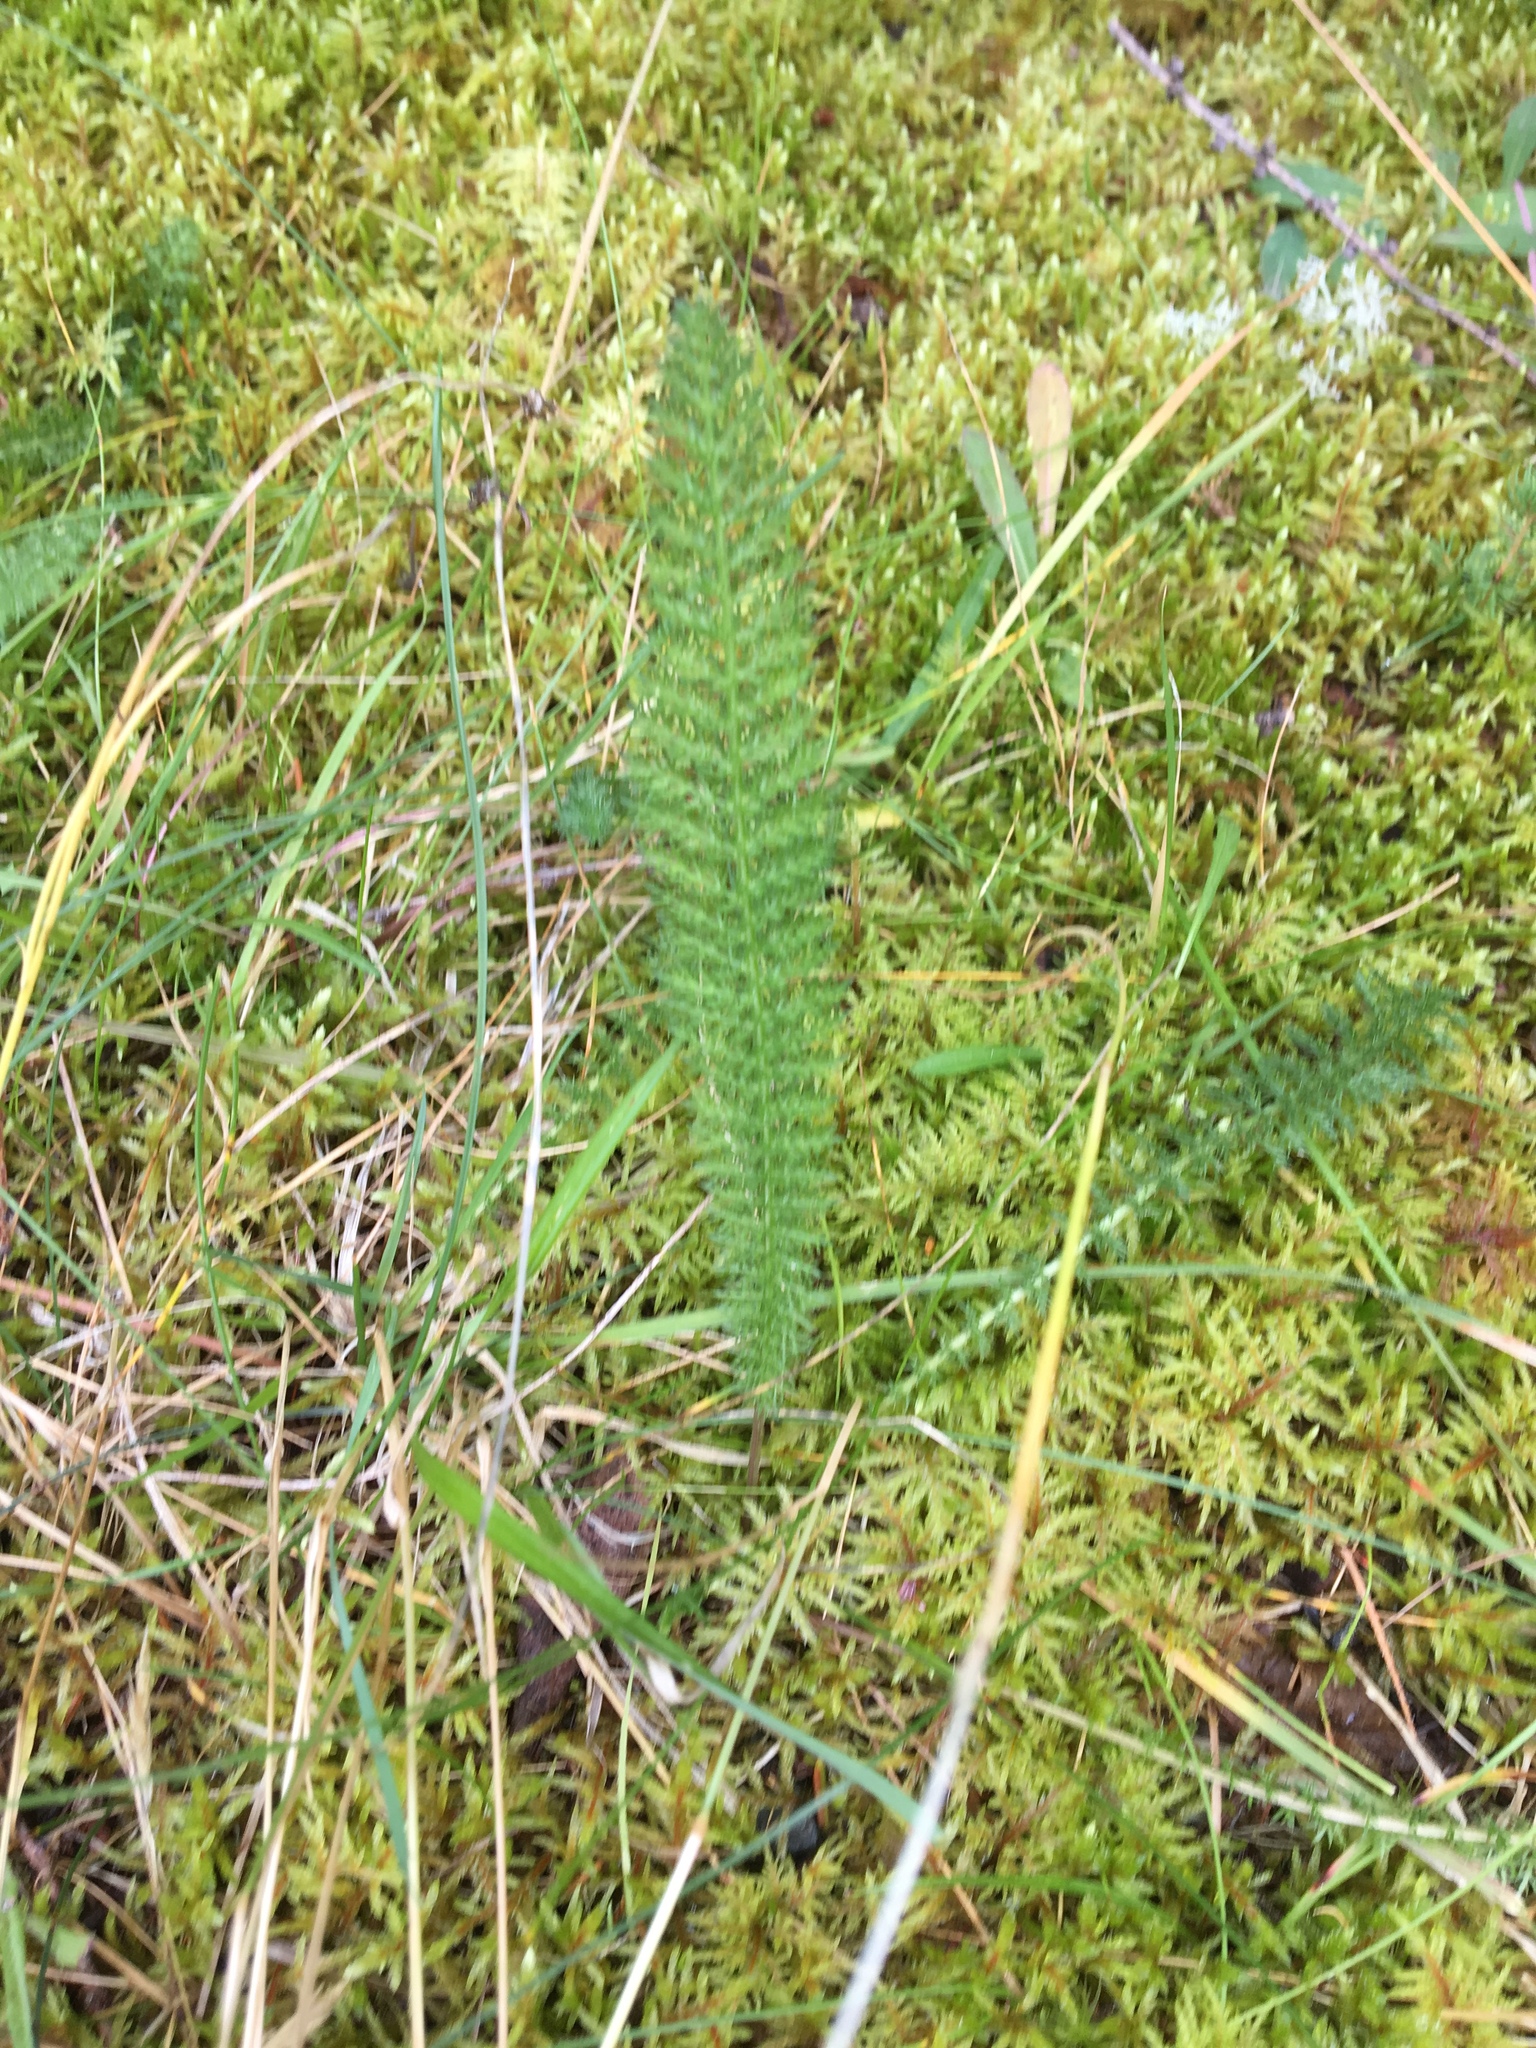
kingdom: Plantae
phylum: Tracheophyta
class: Magnoliopsida
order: Asterales
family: Asteraceae
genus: Achillea
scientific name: Achillea millefolium
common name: Yarrow
